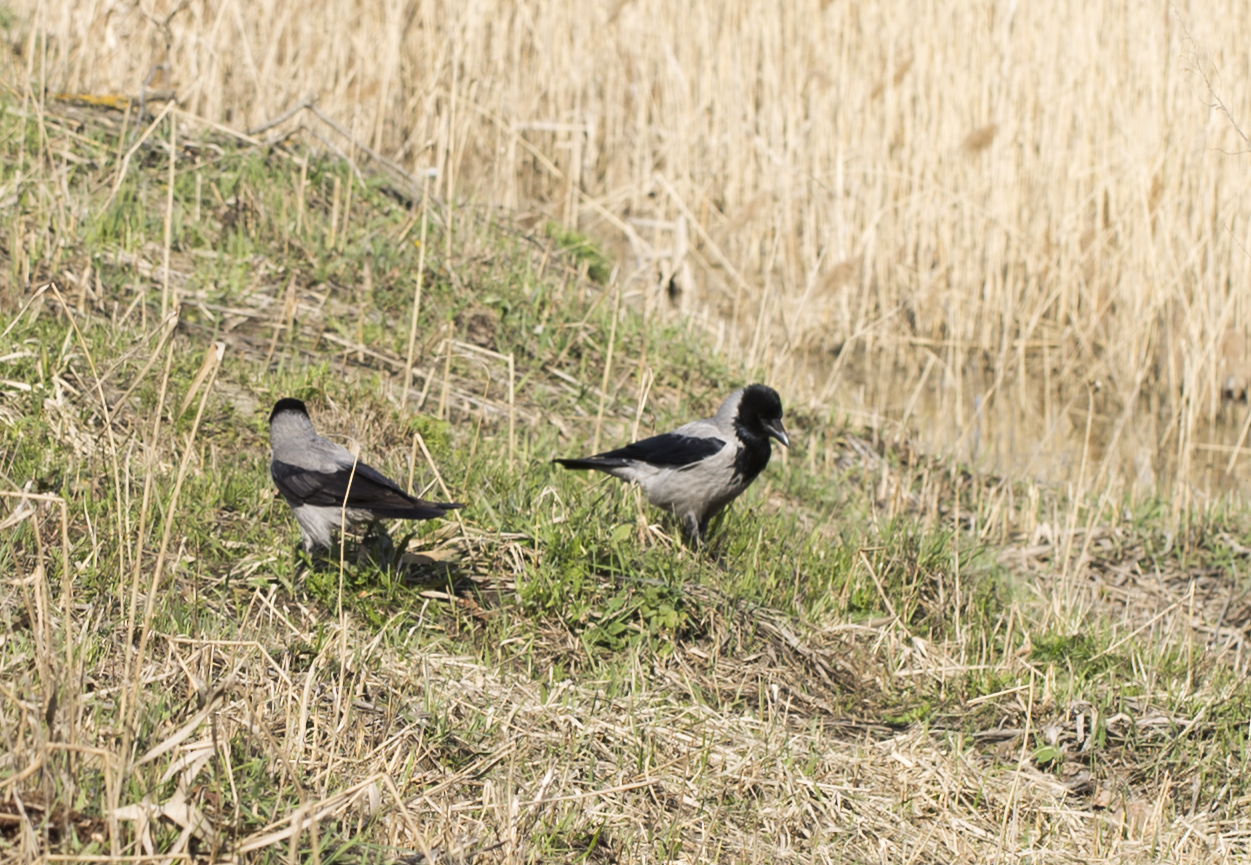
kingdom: Animalia
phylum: Chordata
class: Aves
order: Passeriformes
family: Corvidae
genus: Corvus
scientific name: Corvus cornix
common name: Hooded crow
